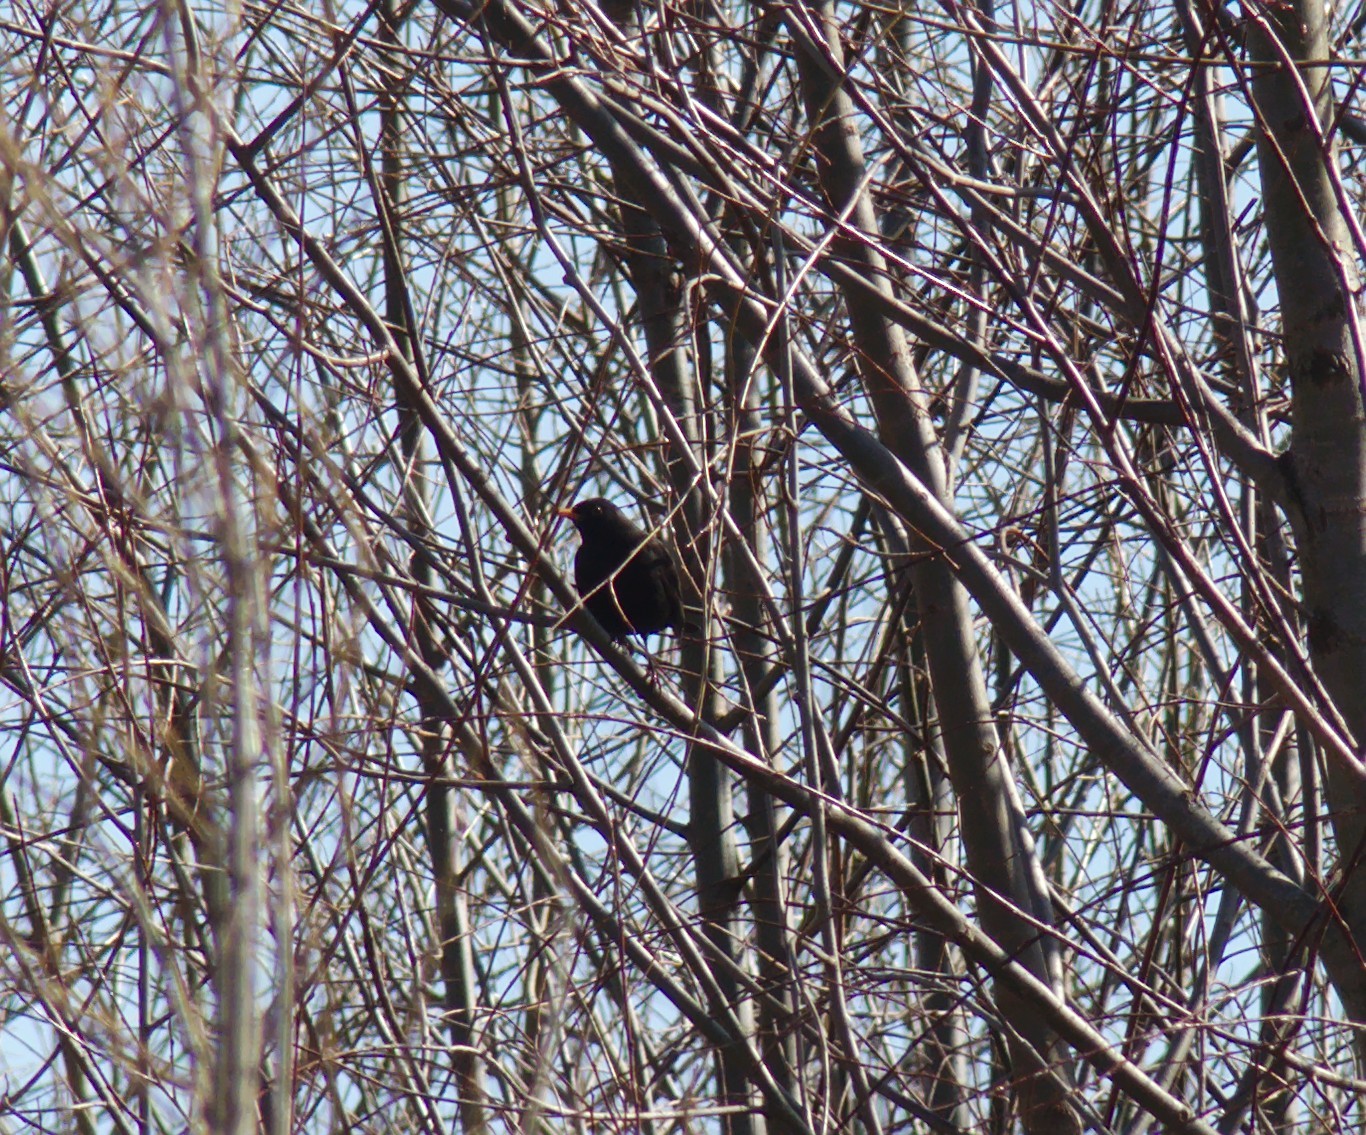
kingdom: Animalia
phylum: Chordata
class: Aves
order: Passeriformes
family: Turdidae
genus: Turdus
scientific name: Turdus merula
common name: Common blackbird
